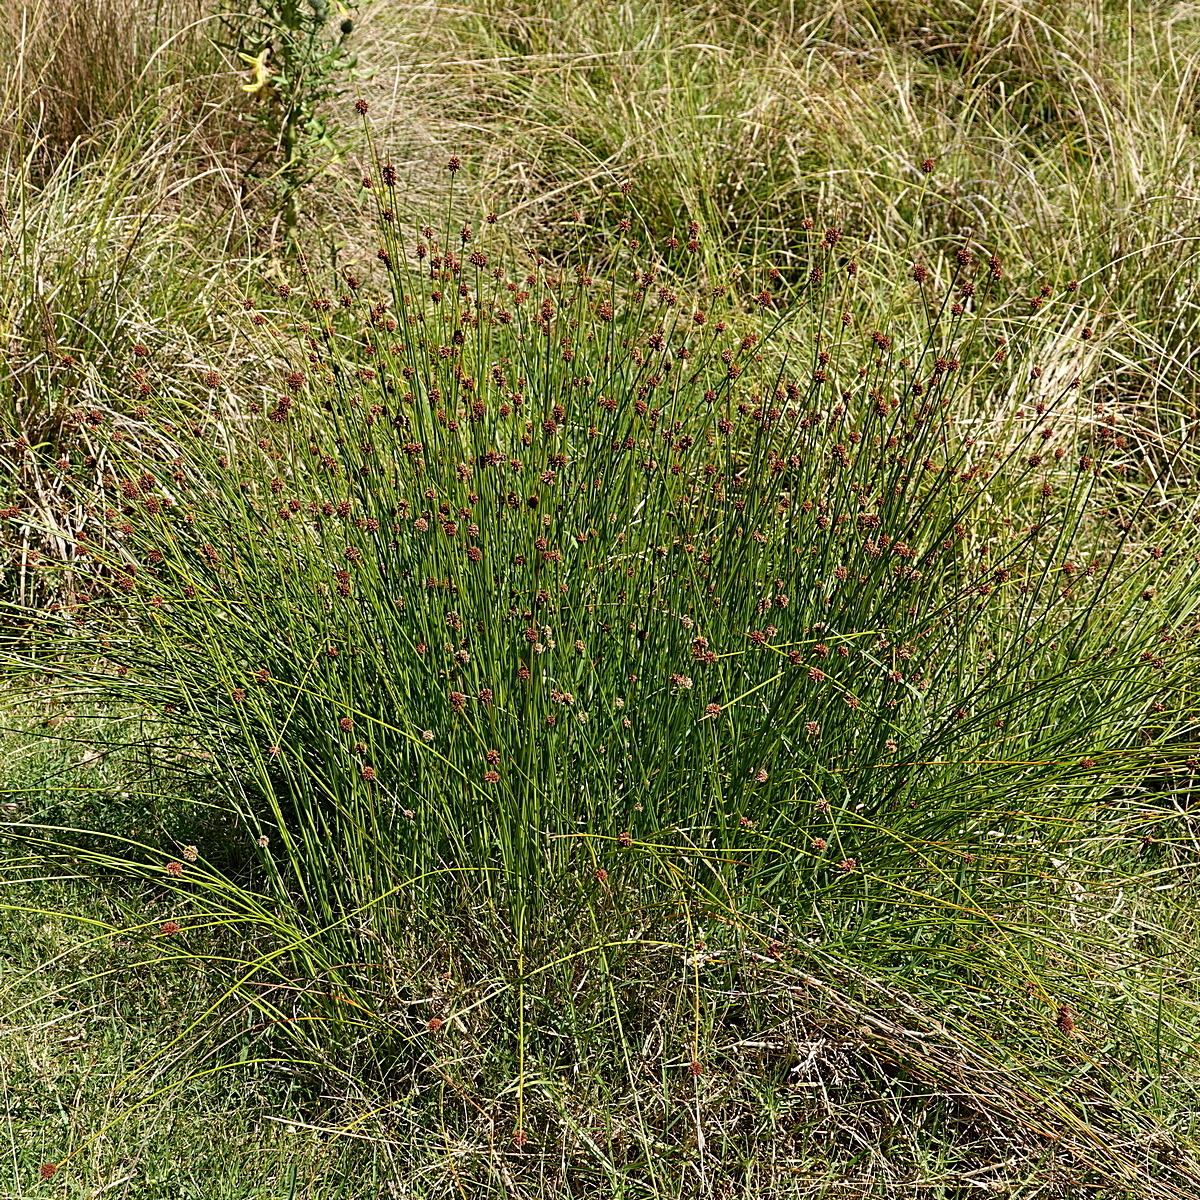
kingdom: Plantae
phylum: Tracheophyta
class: Liliopsida
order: Poales
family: Cyperaceae
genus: Ficinia
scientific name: Ficinia nodosa
